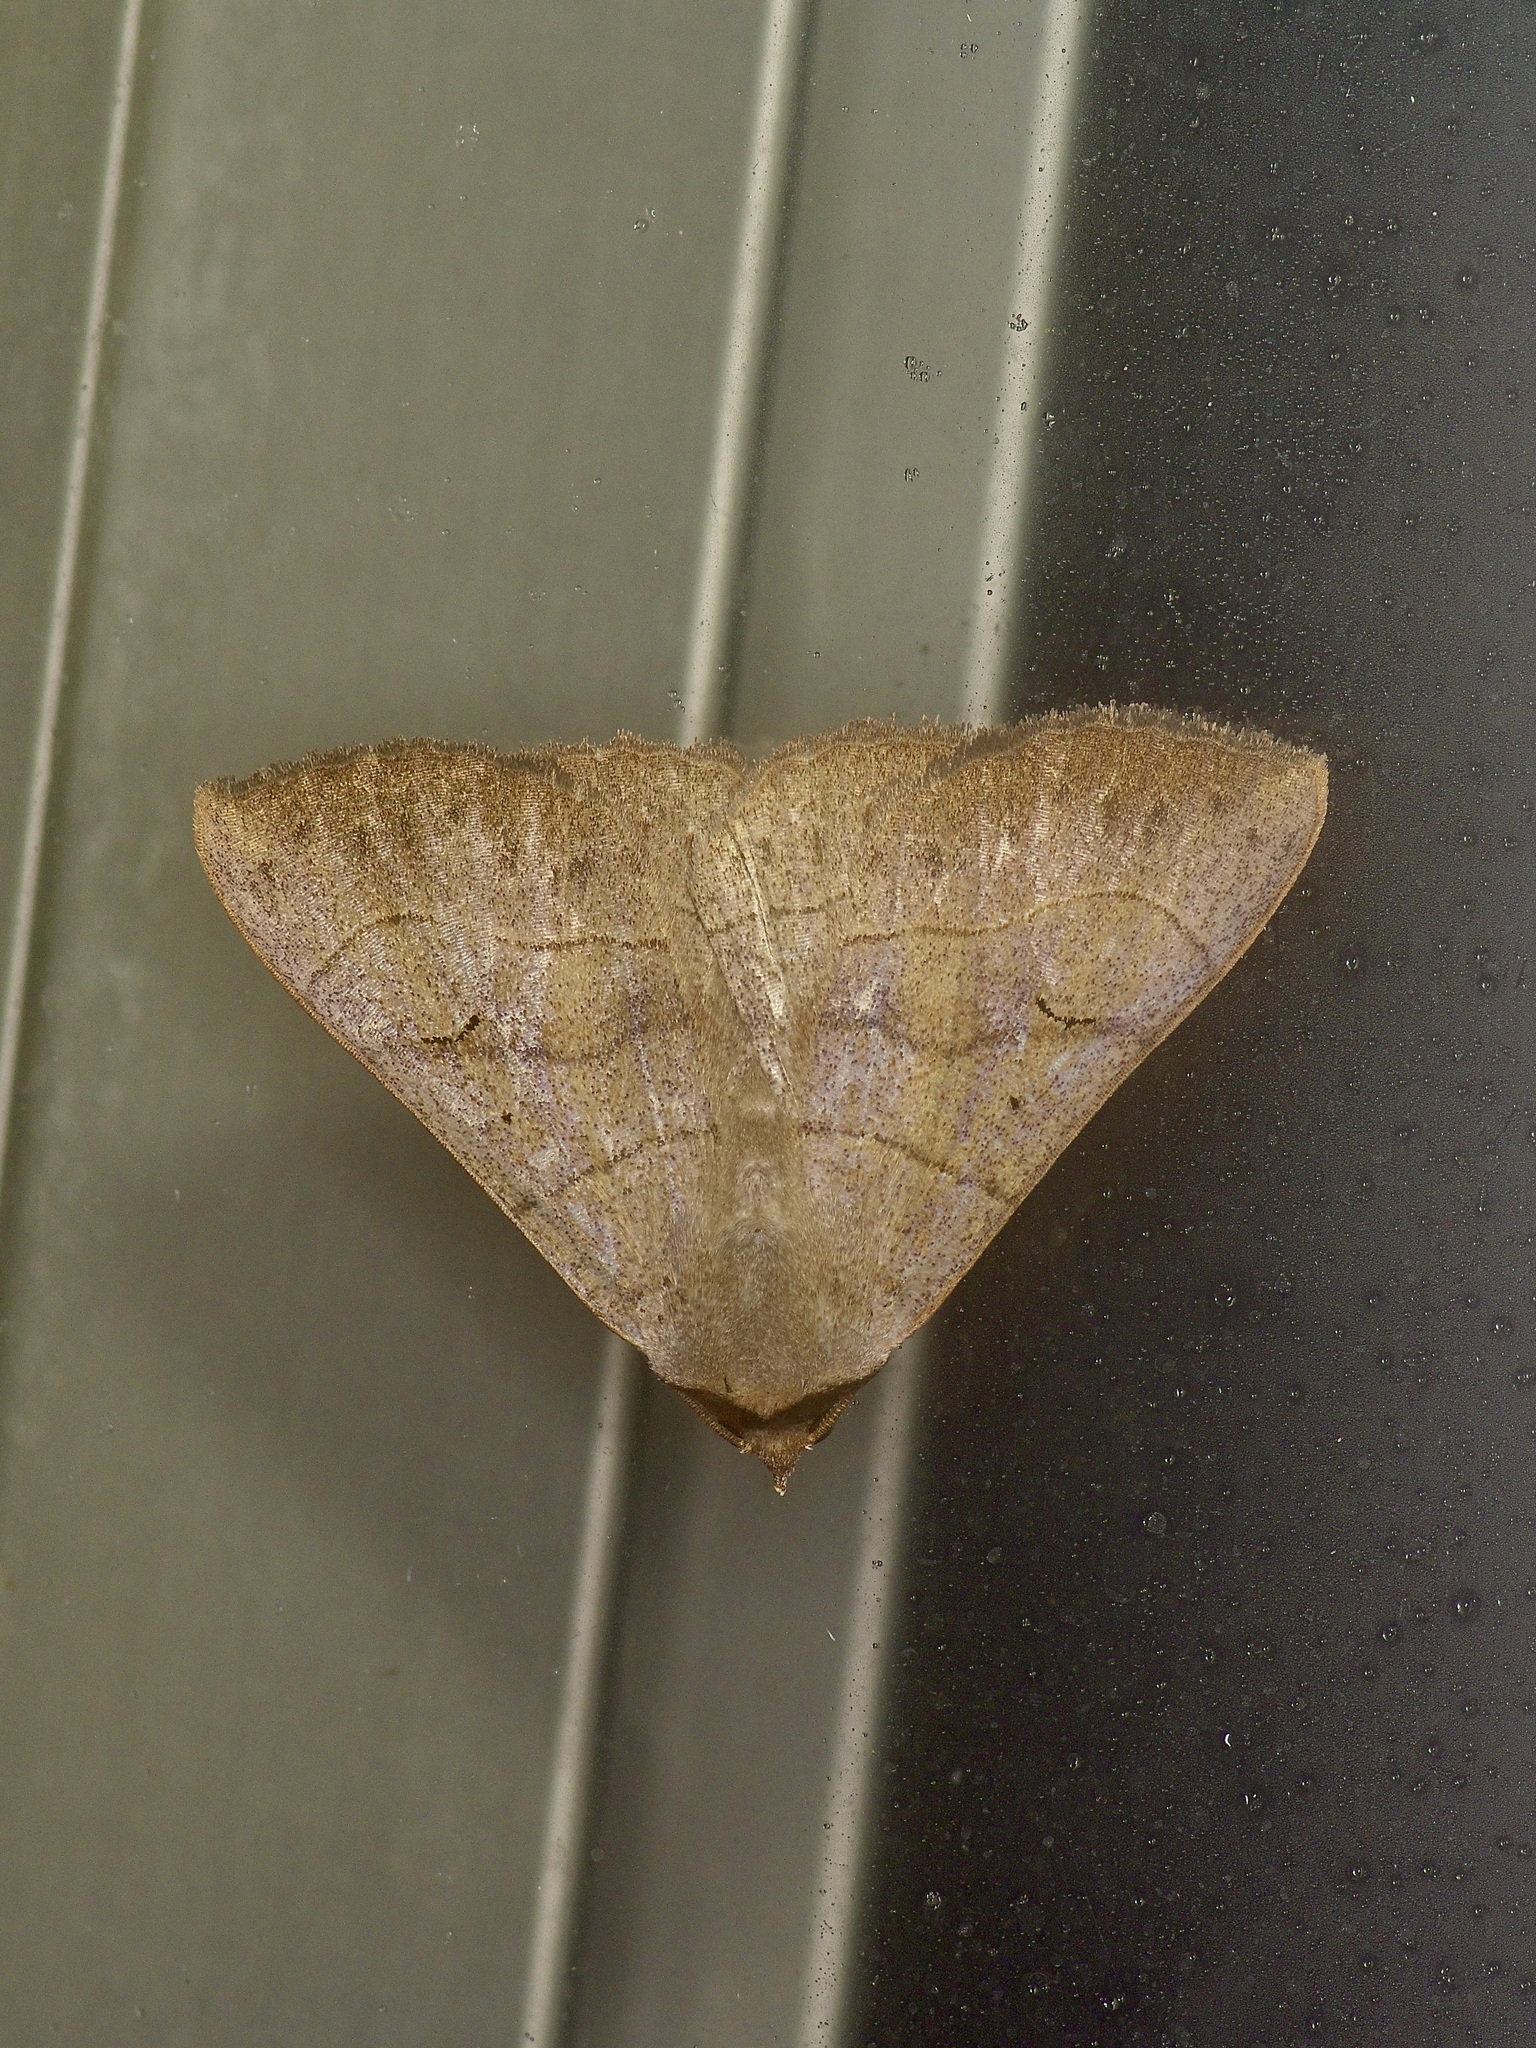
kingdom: Animalia
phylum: Arthropoda
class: Insecta
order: Lepidoptera
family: Erebidae
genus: Panopoda
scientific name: Panopoda carneicosta
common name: Brown panopoda moth
